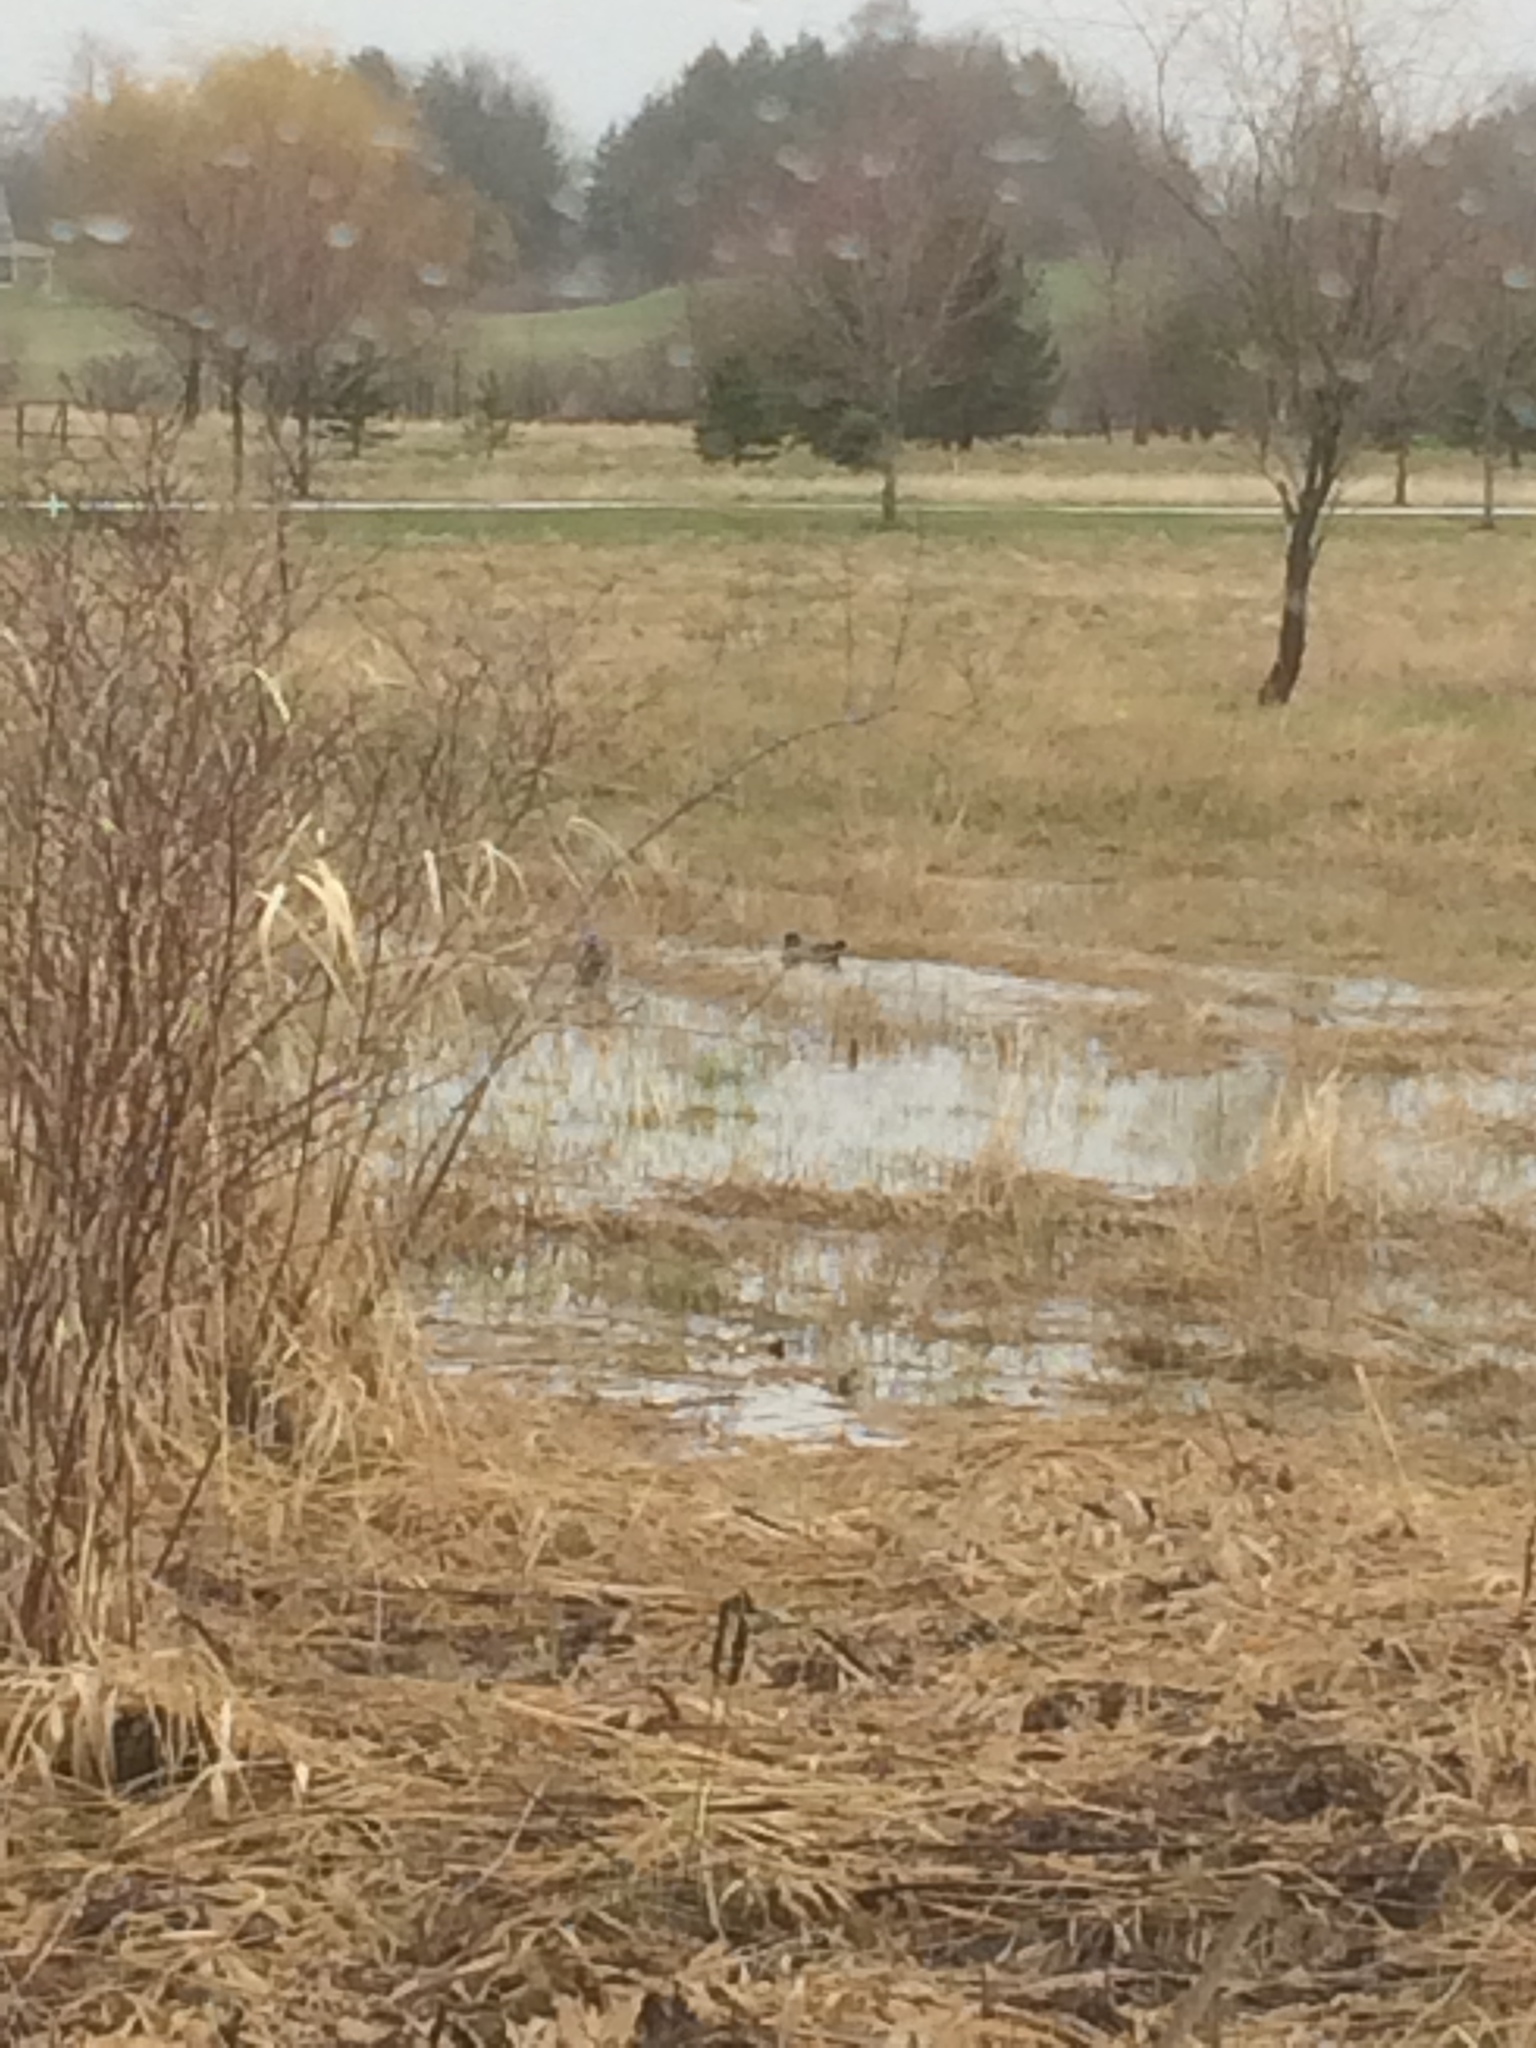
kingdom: Animalia
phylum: Chordata
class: Aves
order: Anseriformes
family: Anatidae
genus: Aix
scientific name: Aix sponsa
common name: Wood duck
